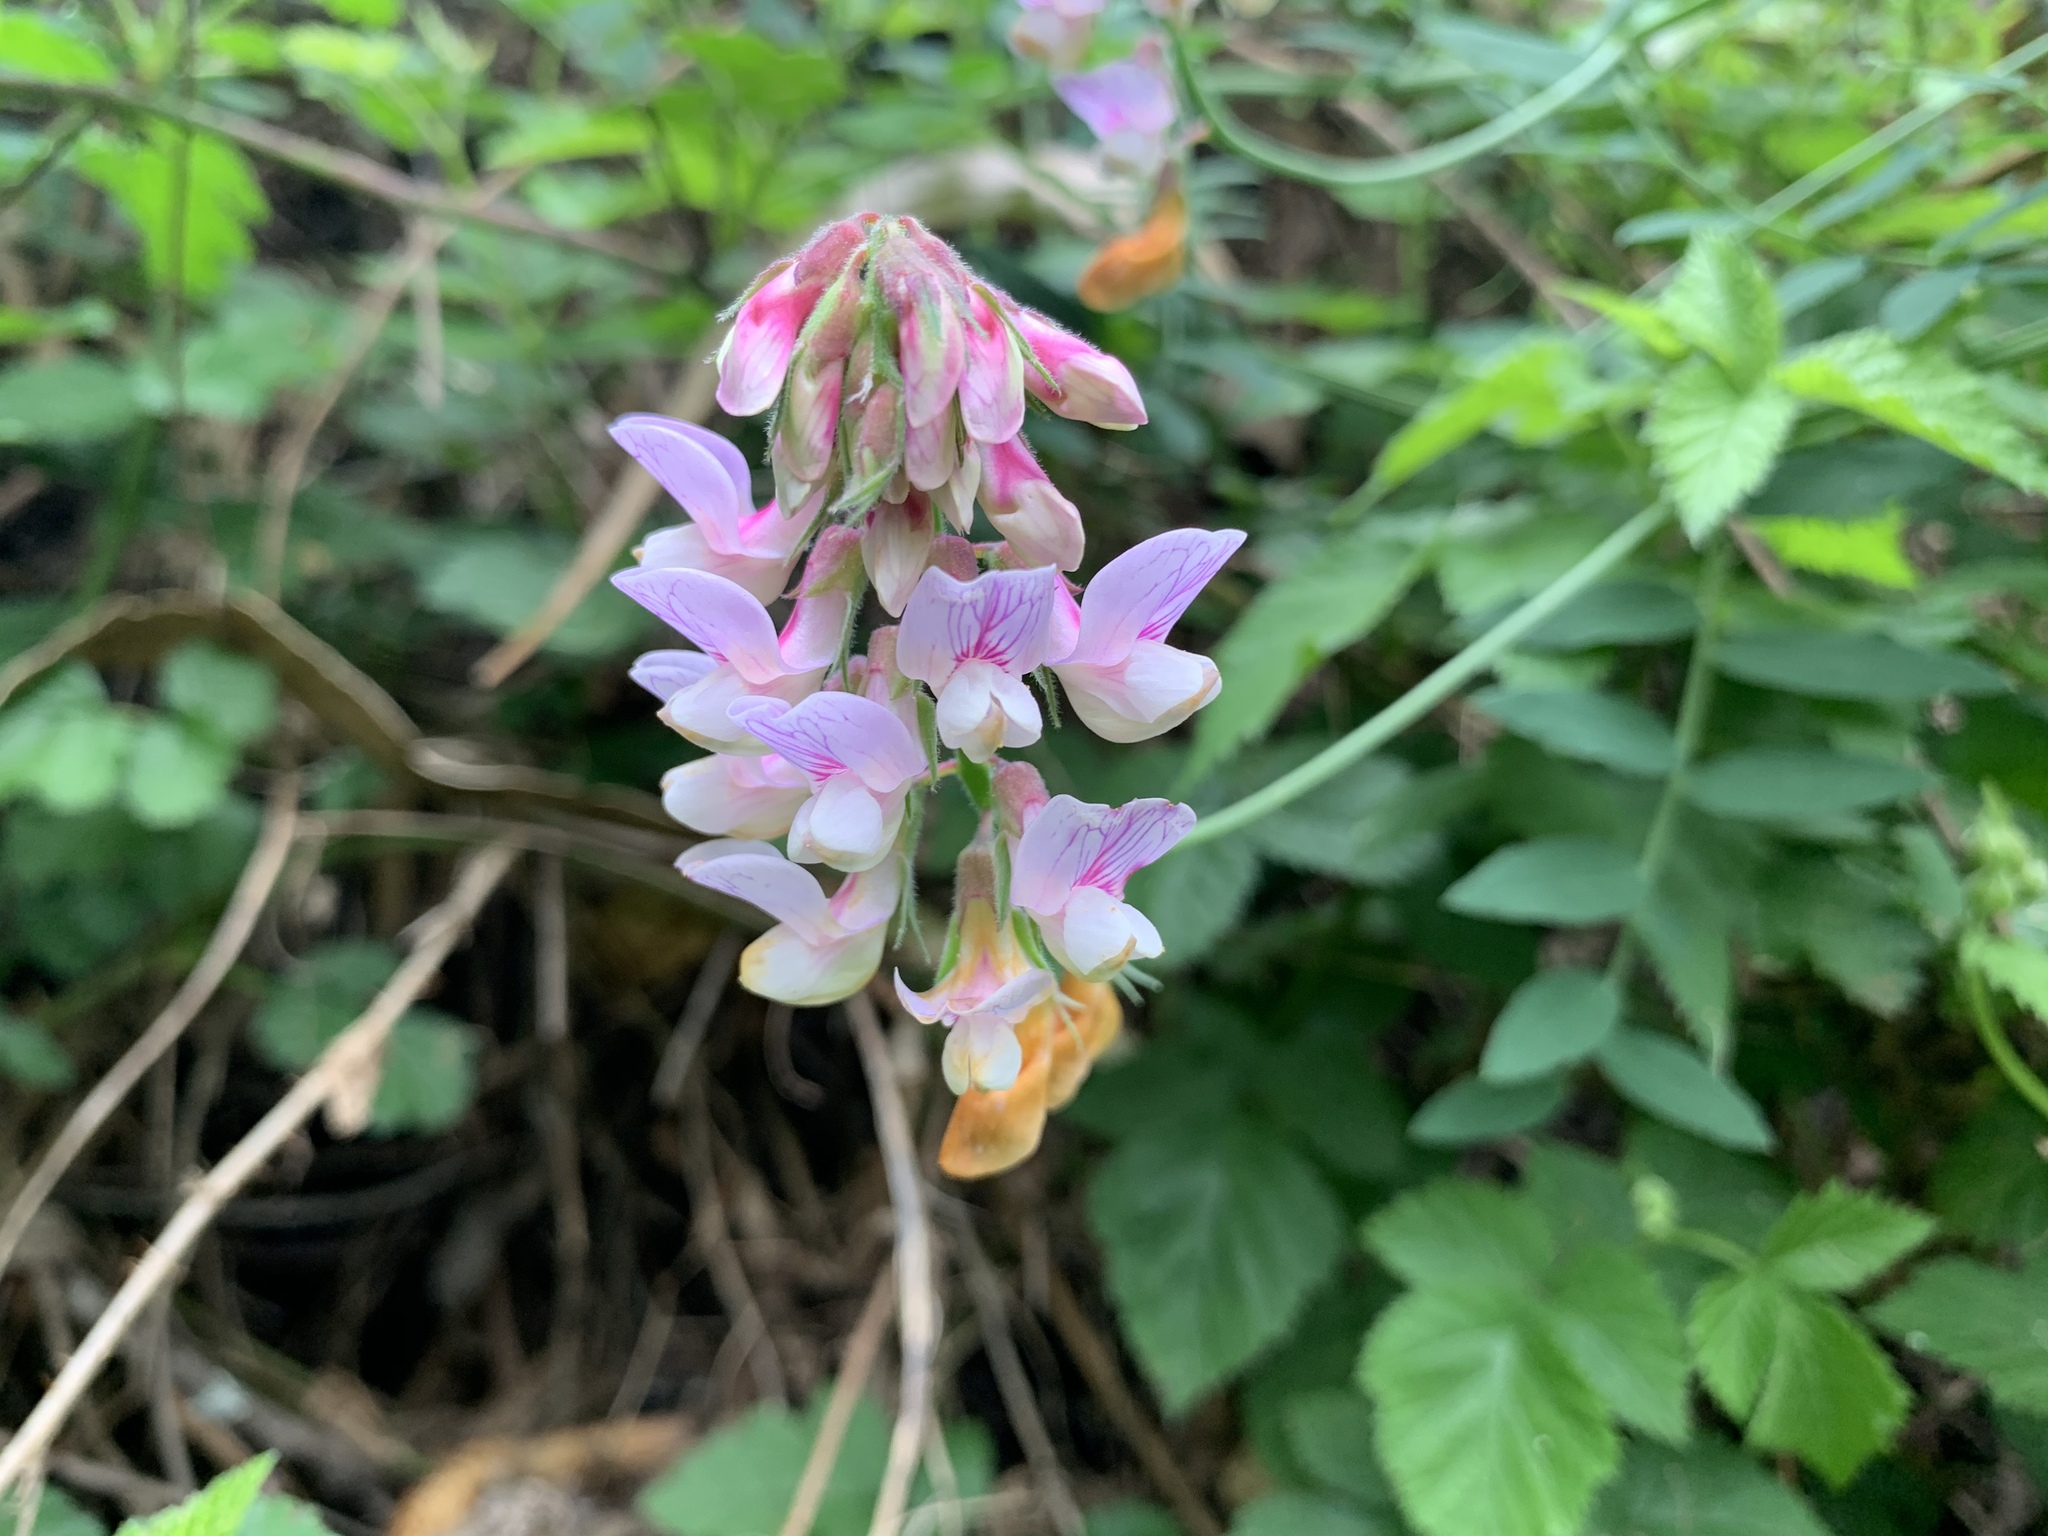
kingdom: Plantae
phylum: Tracheophyta
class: Magnoliopsida
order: Fabales
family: Fabaceae
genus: Lathyrus
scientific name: Lathyrus vestitus
